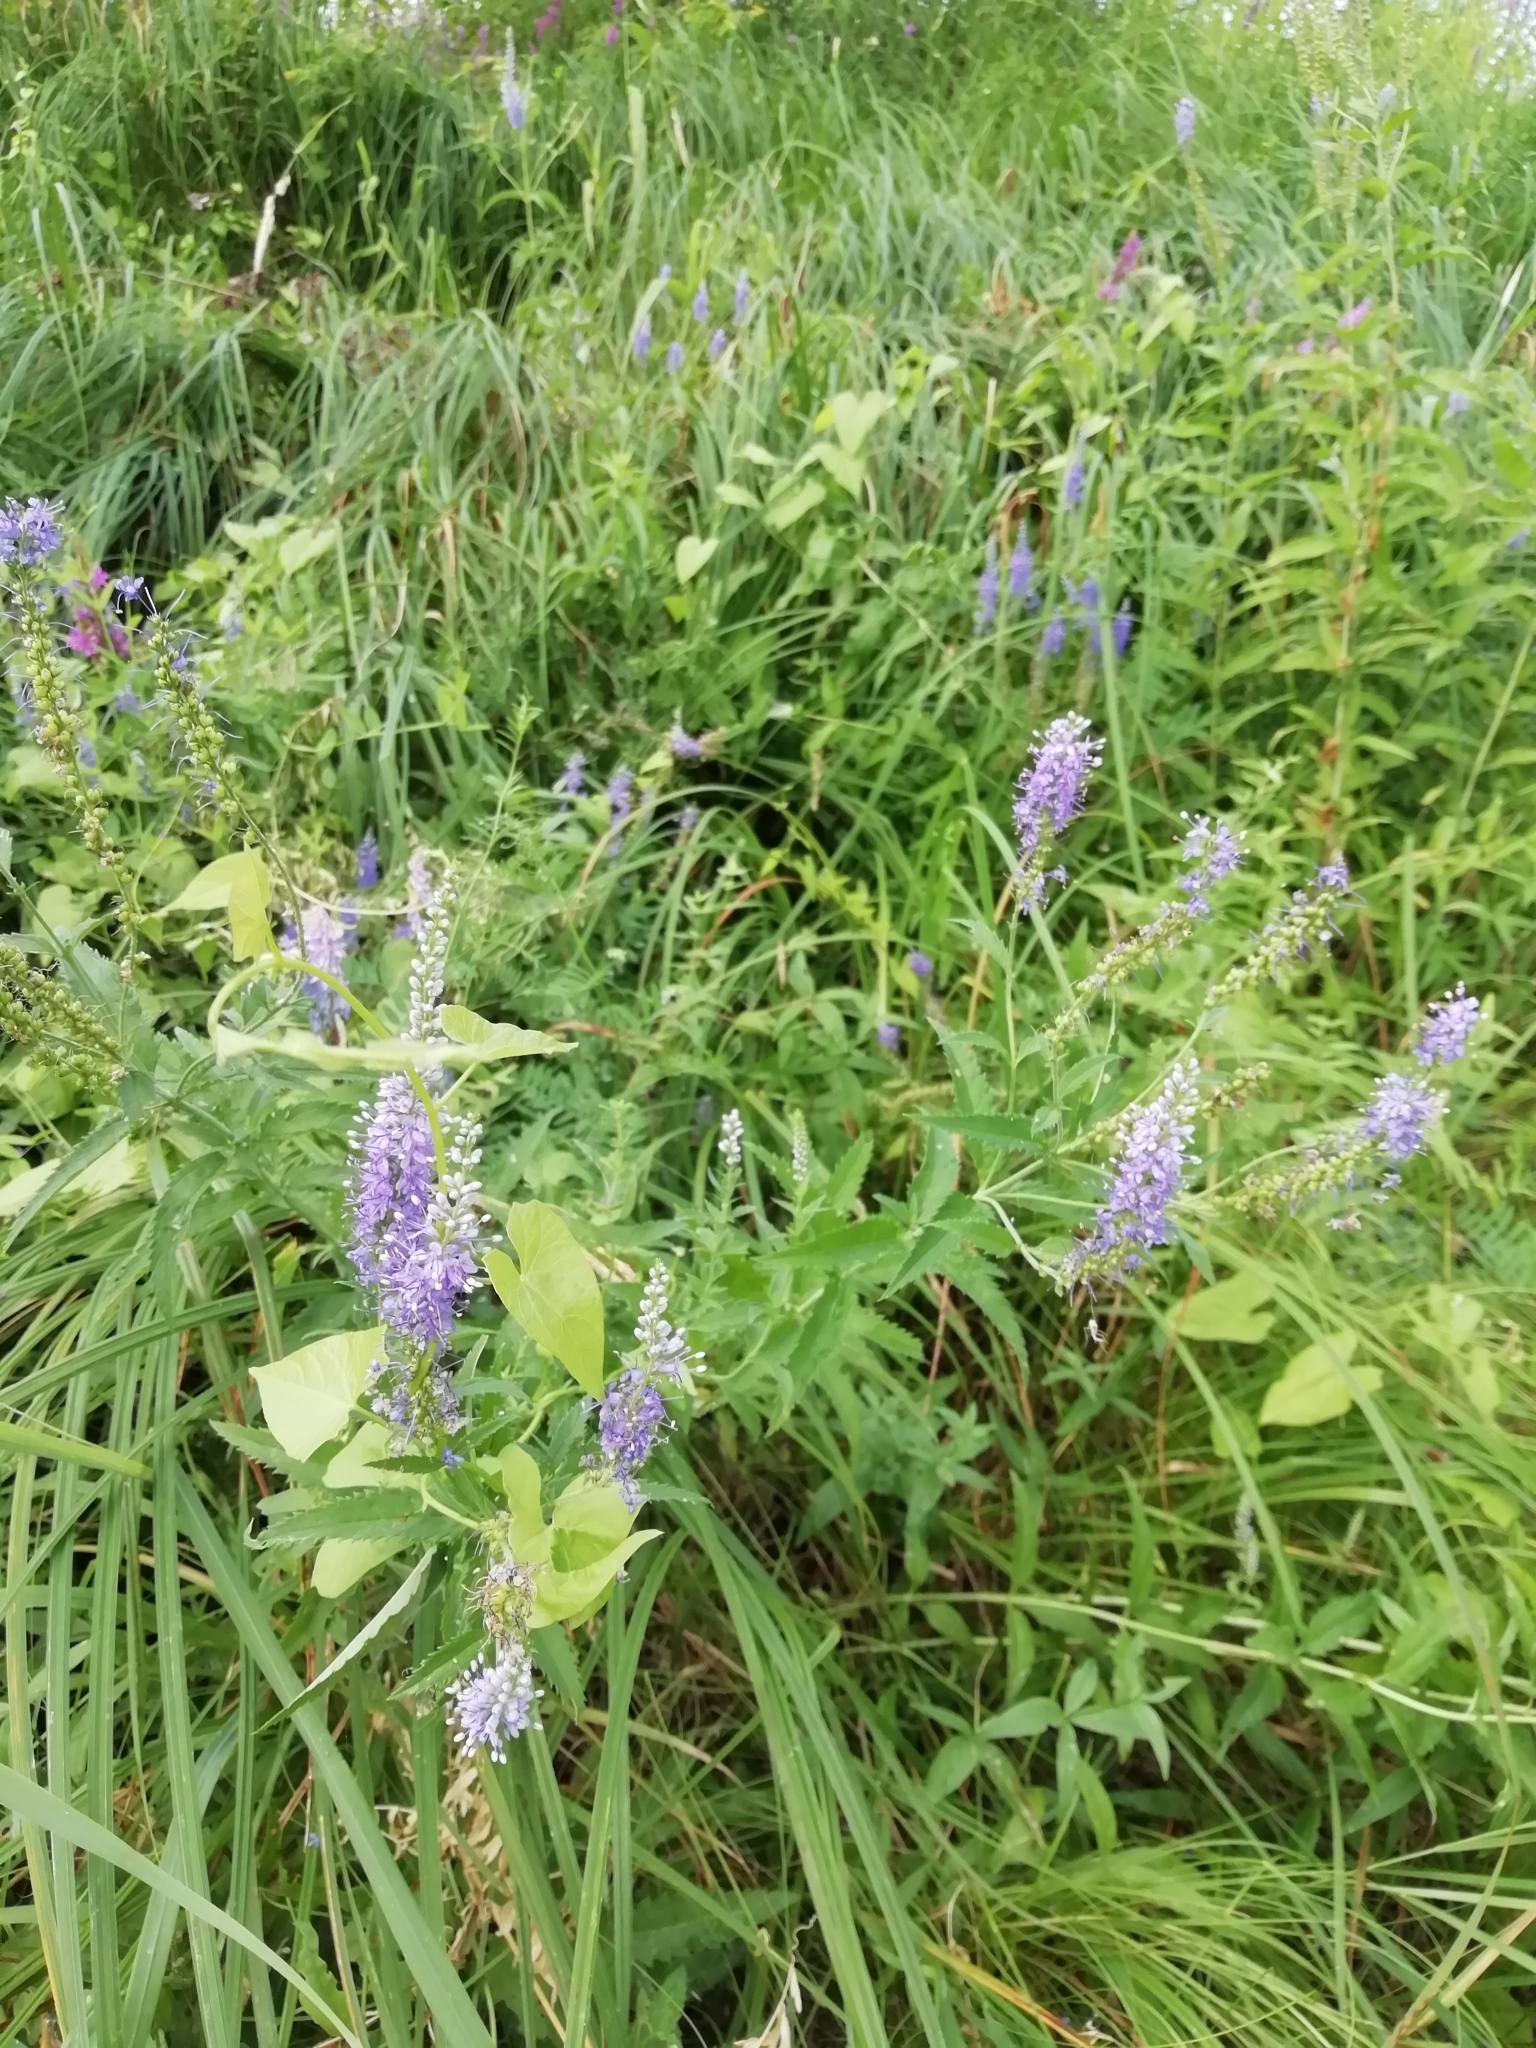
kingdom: Plantae
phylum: Tracheophyta
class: Magnoliopsida
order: Lamiales
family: Plantaginaceae
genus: Veronica
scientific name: Veronica longifolia
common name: Garden speedwell
